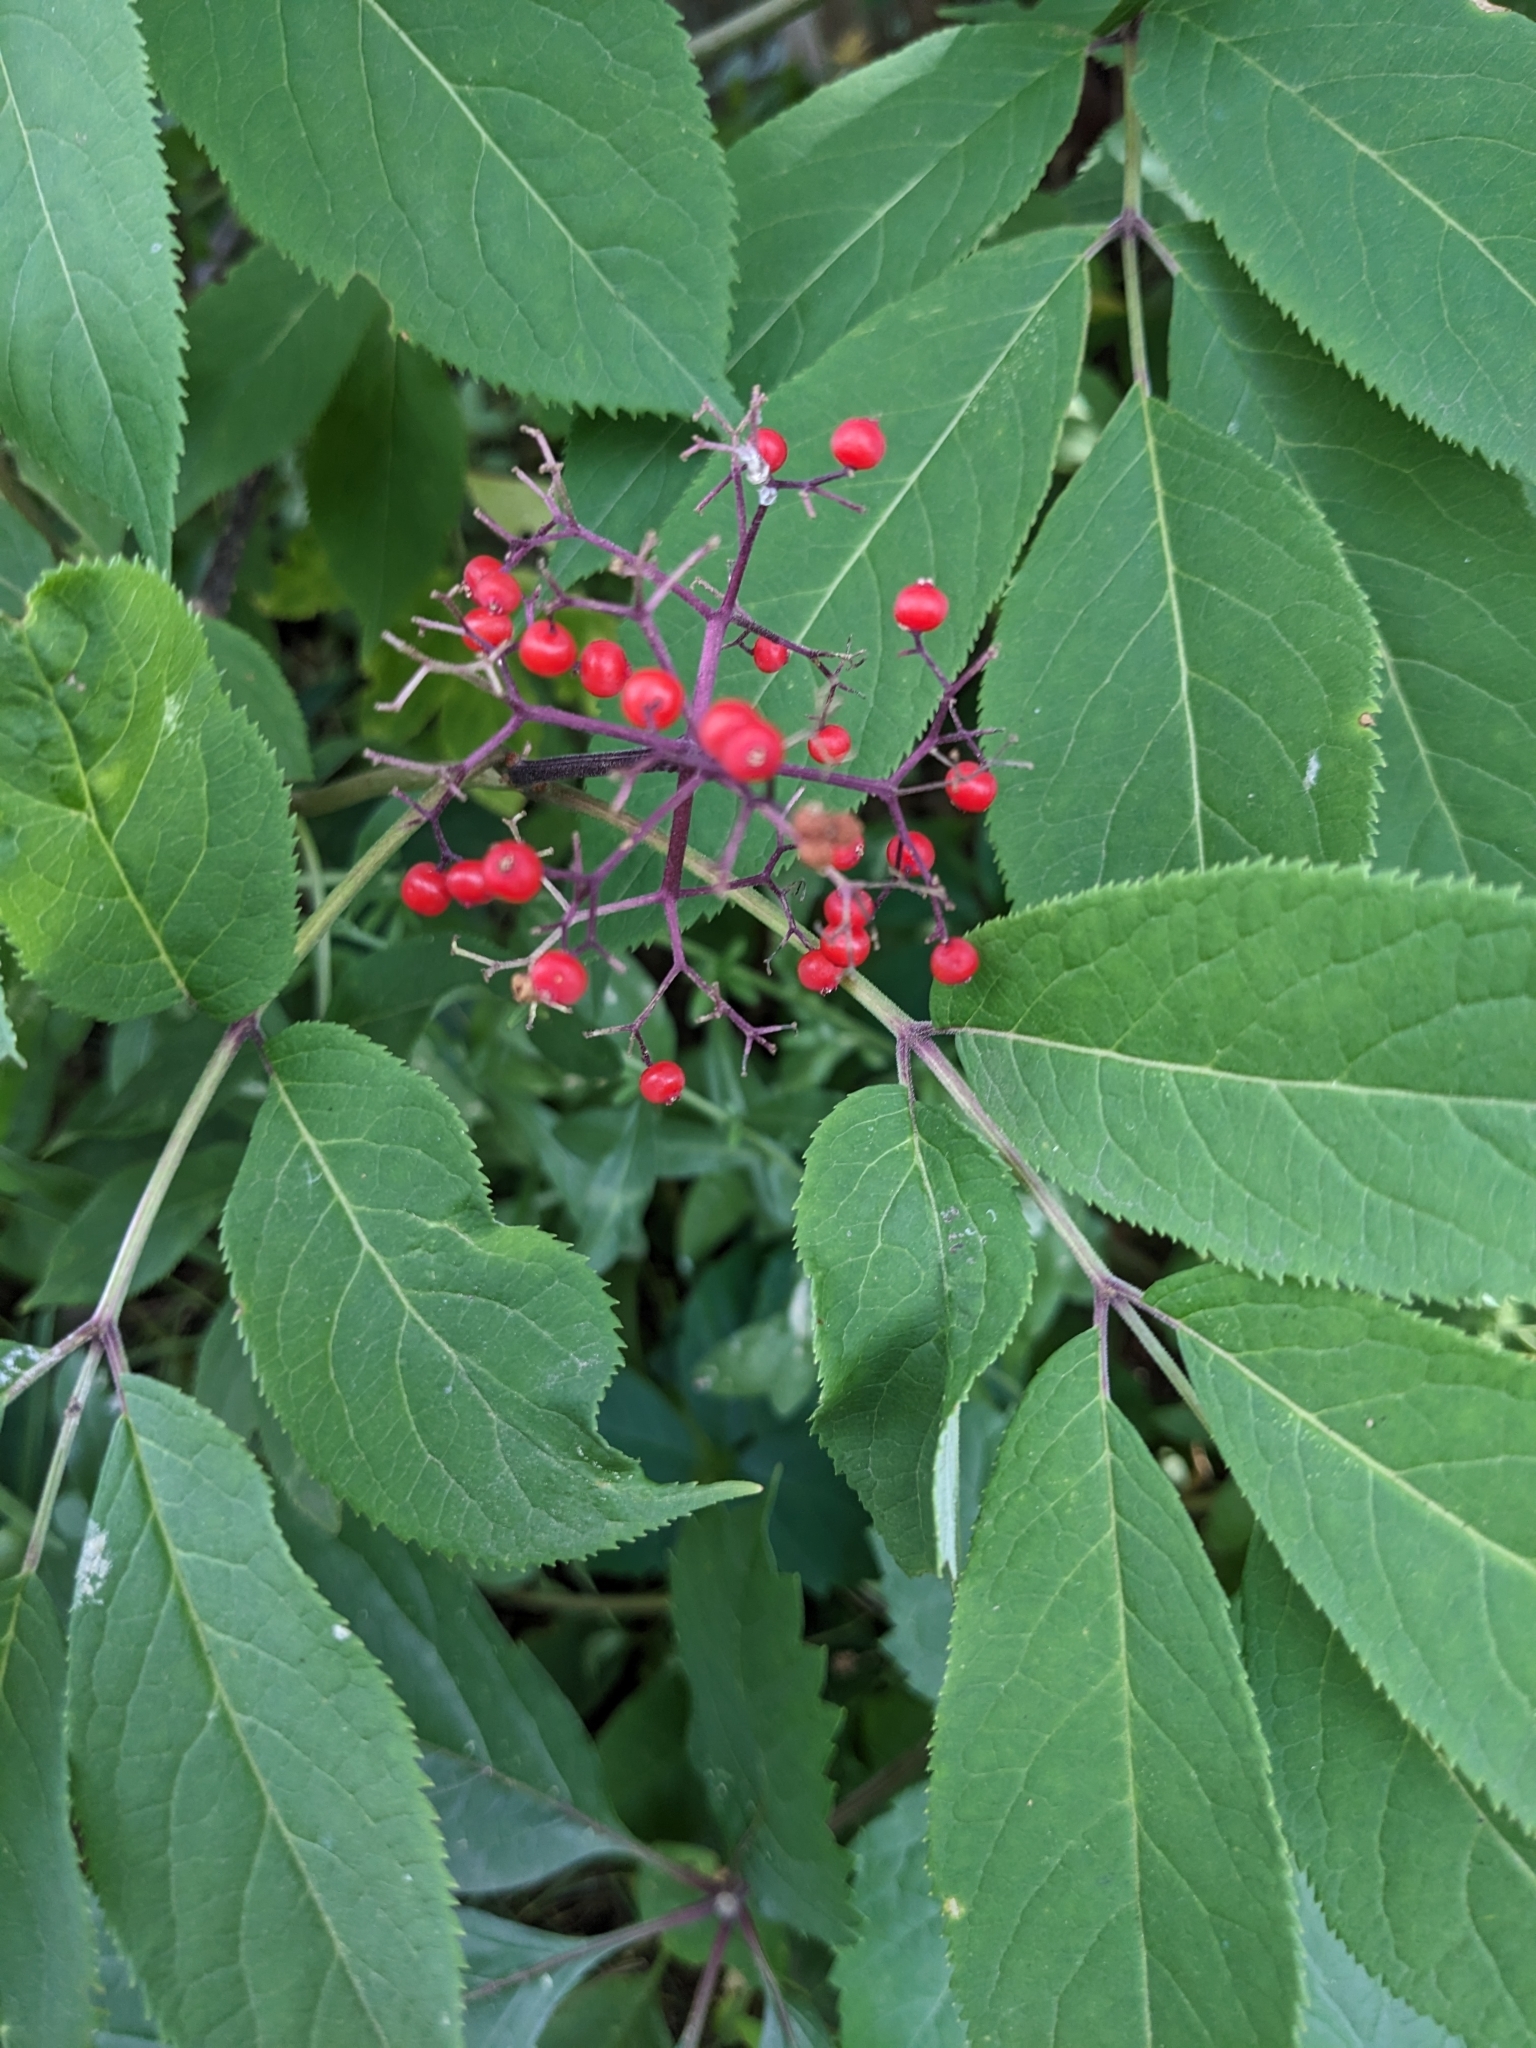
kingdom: Plantae
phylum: Tracheophyta
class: Magnoliopsida
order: Dipsacales
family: Viburnaceae
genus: Sambucus
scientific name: Sambucus racemosa
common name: Red-berried elder
